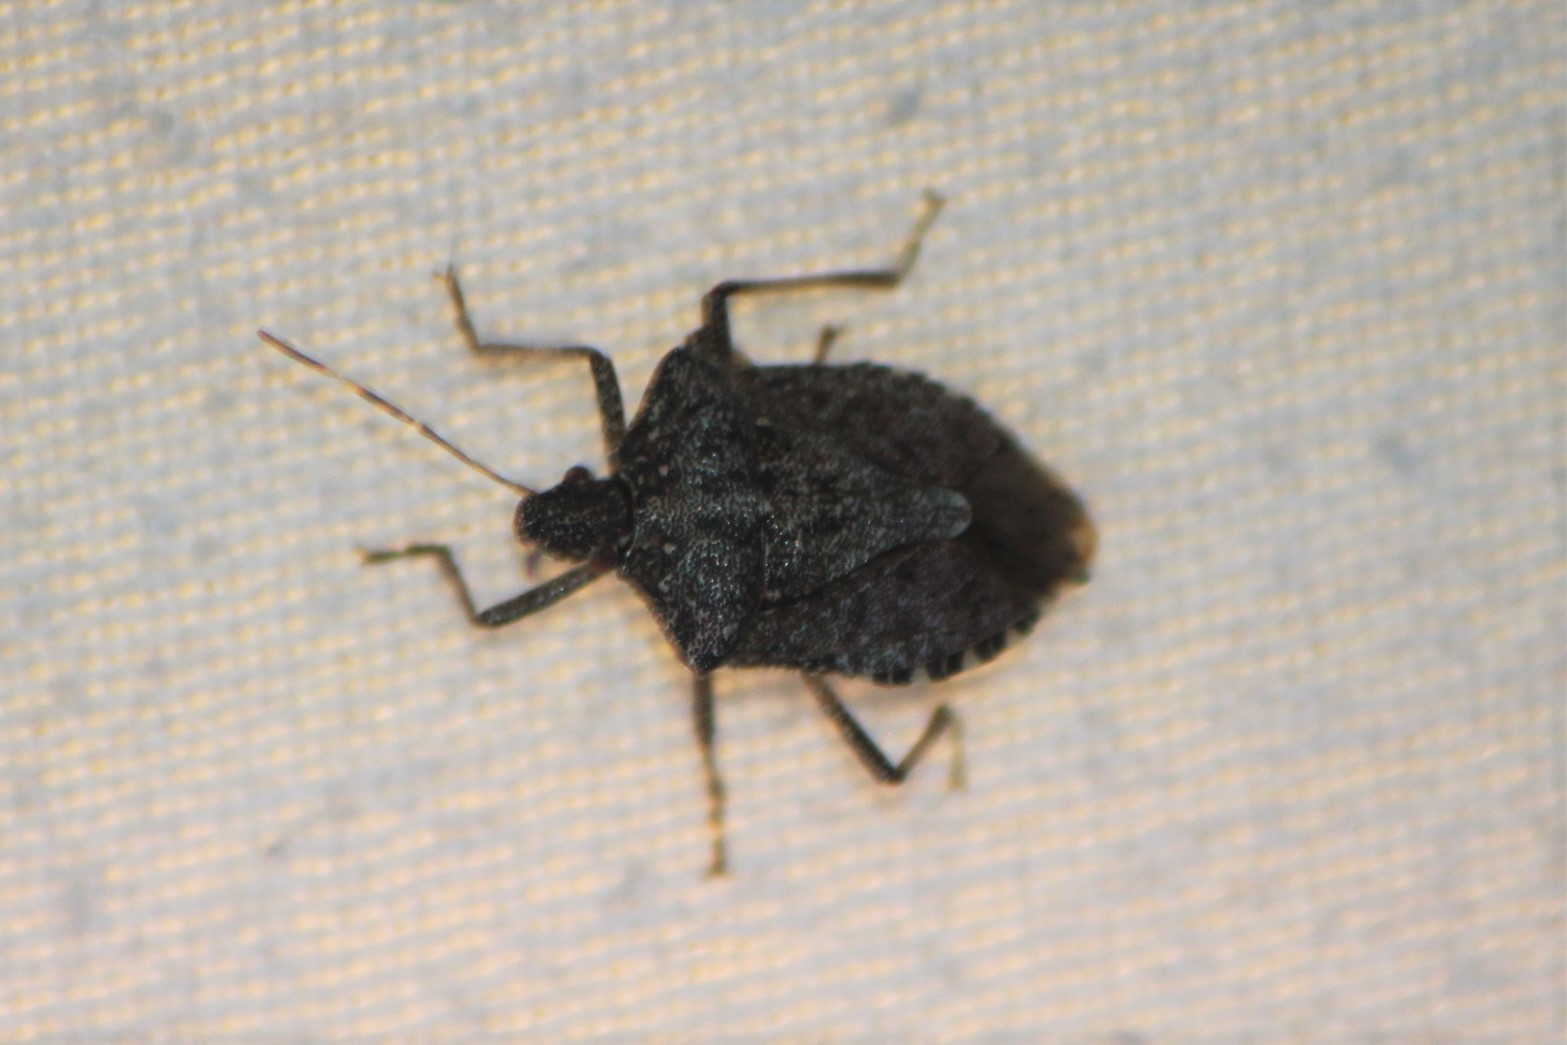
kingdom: Animalia
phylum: Arthropoda
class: Insecta
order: Hemiptera
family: Pentatomidae
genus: Halyomorpha
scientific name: Halyomorpha halys
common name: Brown marmorated stink bug
